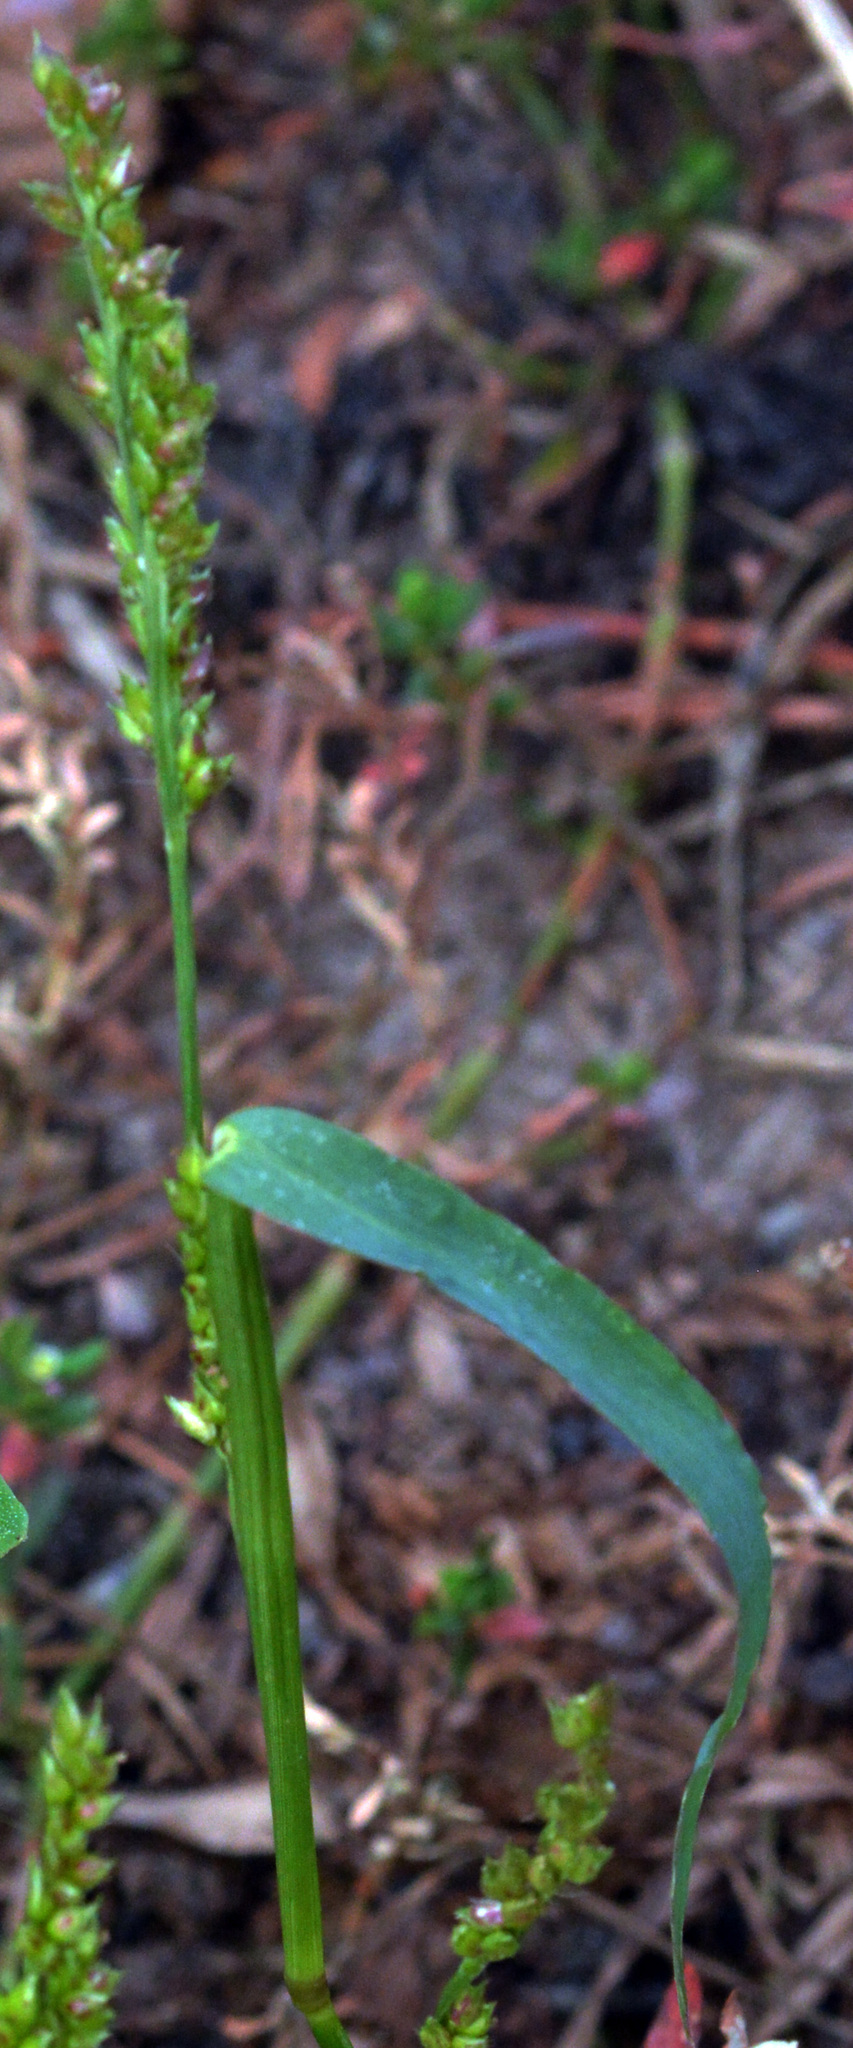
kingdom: Plantae
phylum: Tracheophyta
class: Liliopsida
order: Poales
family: Poaceae
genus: Echinochloa
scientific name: Echinochloa crus-galli
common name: Cockspur
